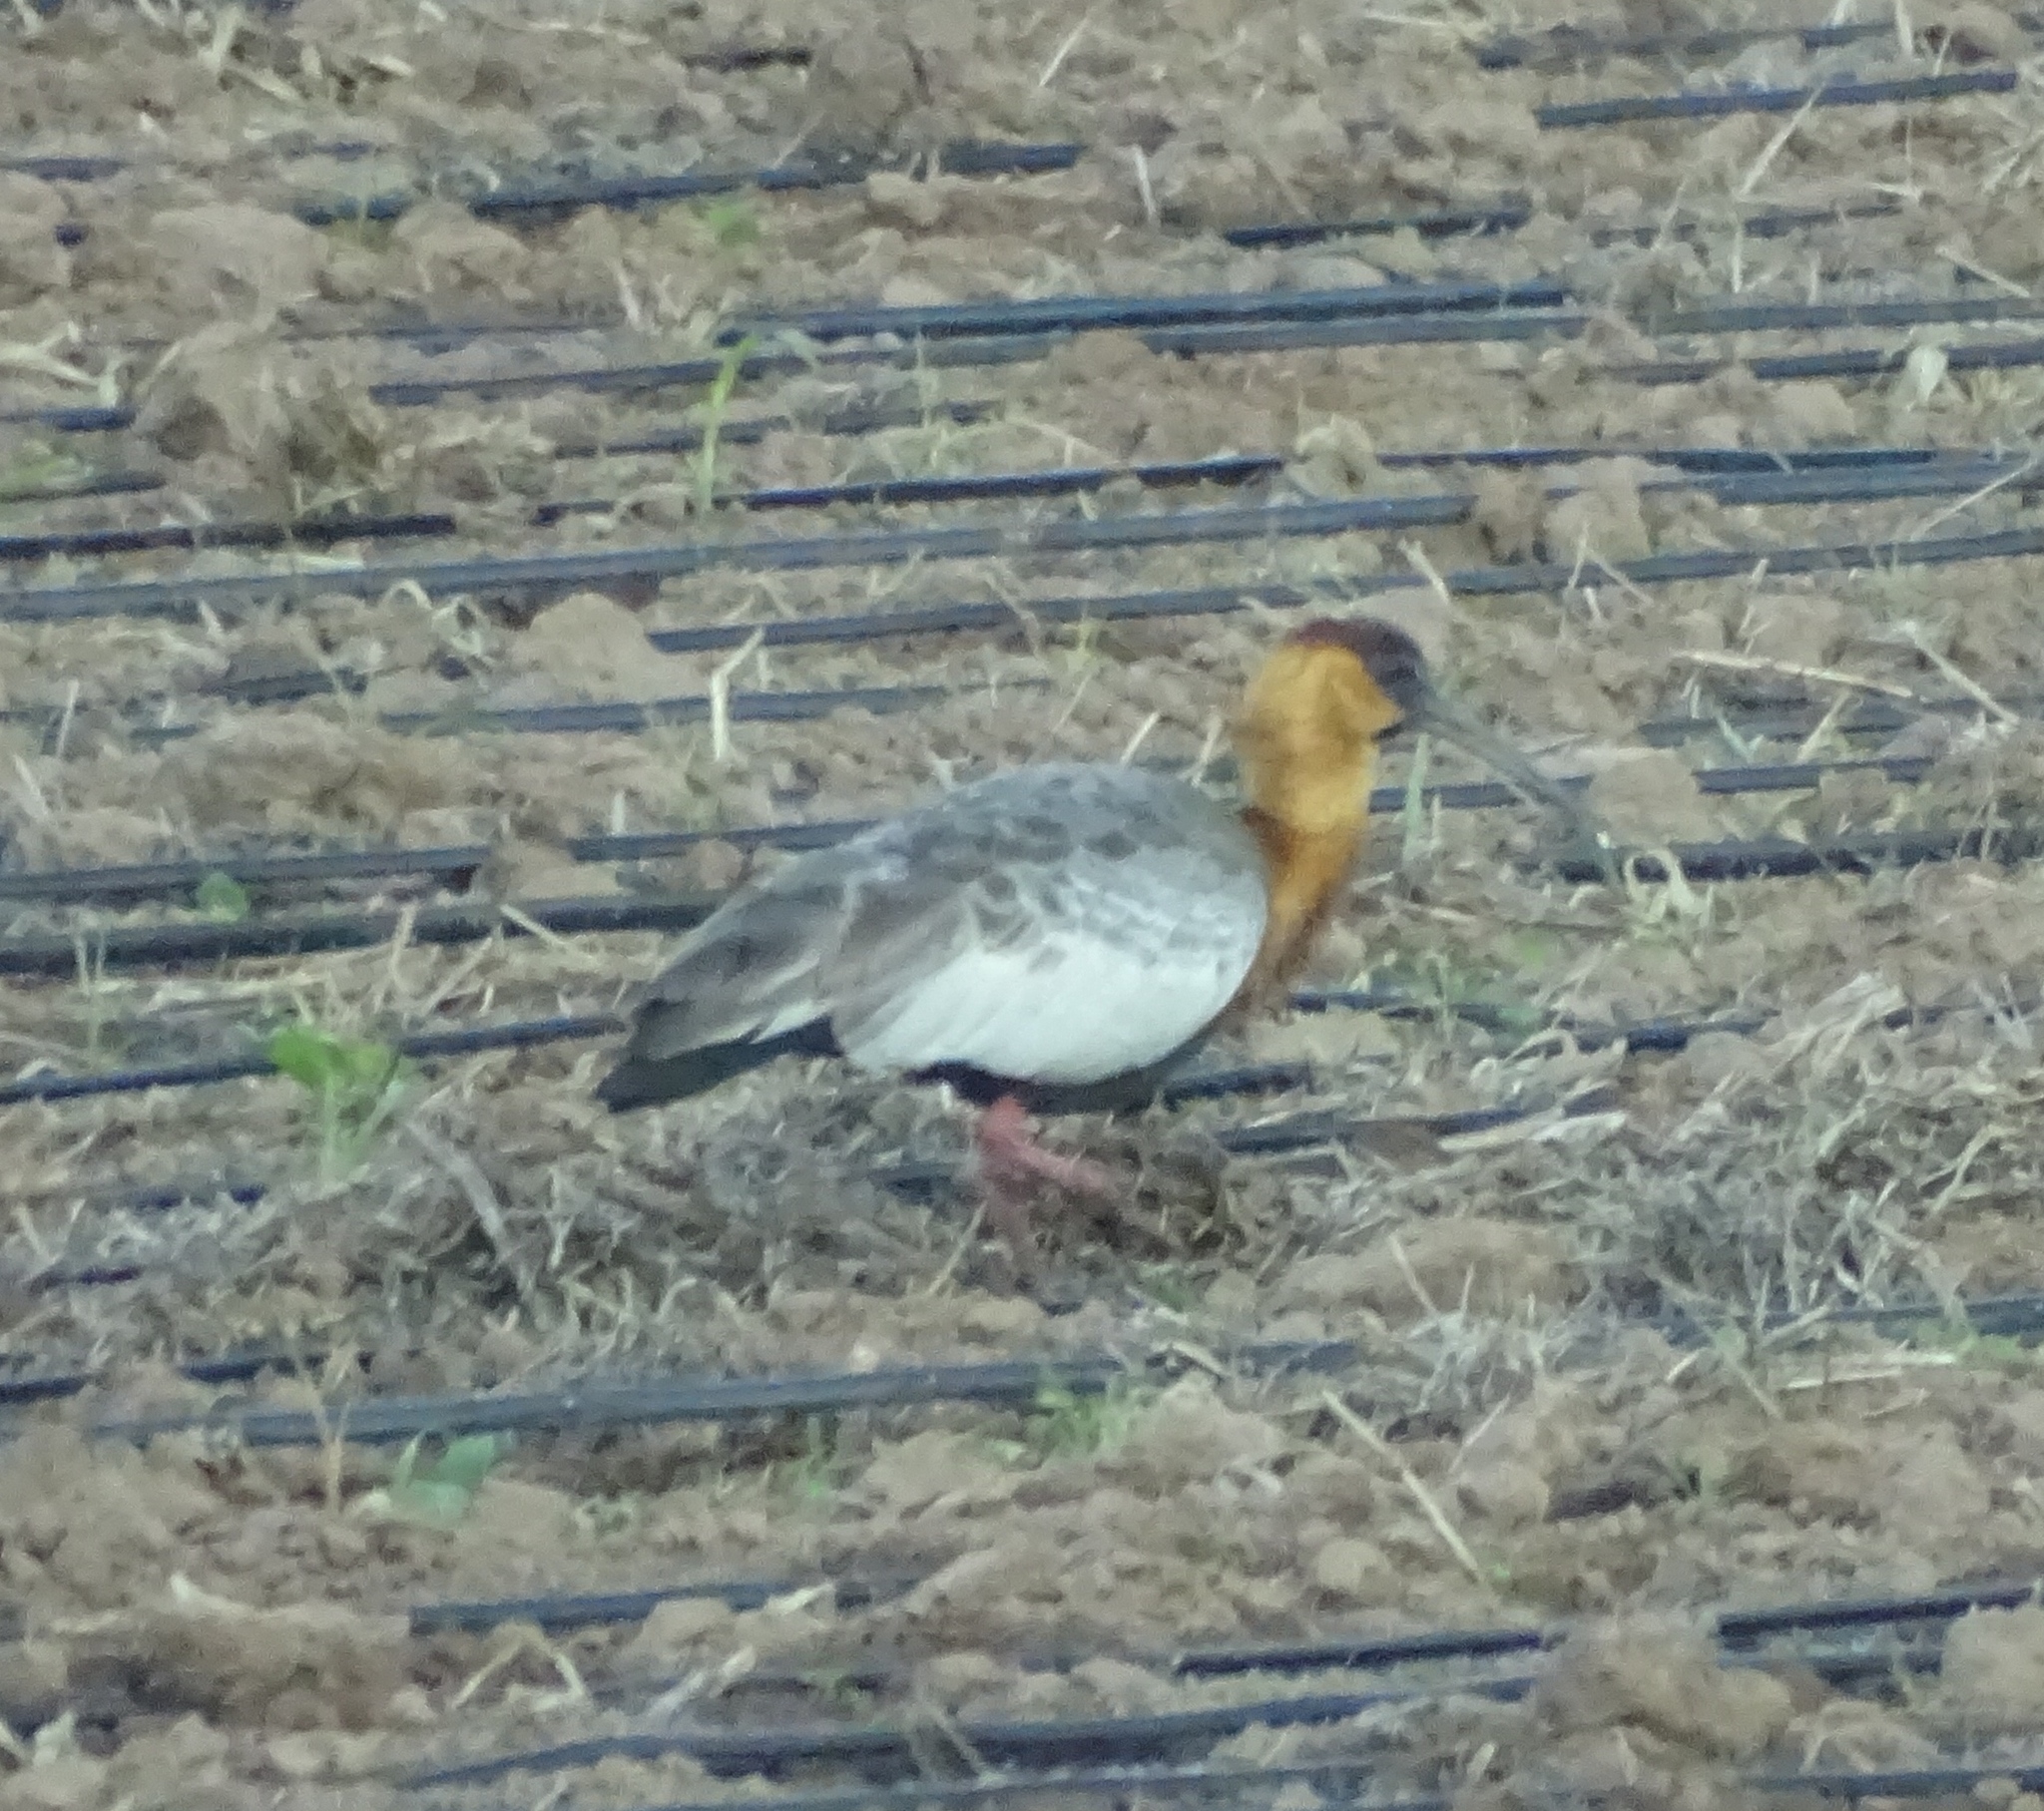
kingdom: Animalia
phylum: Chordata
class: Aves
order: Pelecaniformes
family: Threskiornithidae
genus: Theristicus
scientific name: Theristicus caudatus
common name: Buff-necked ibis
